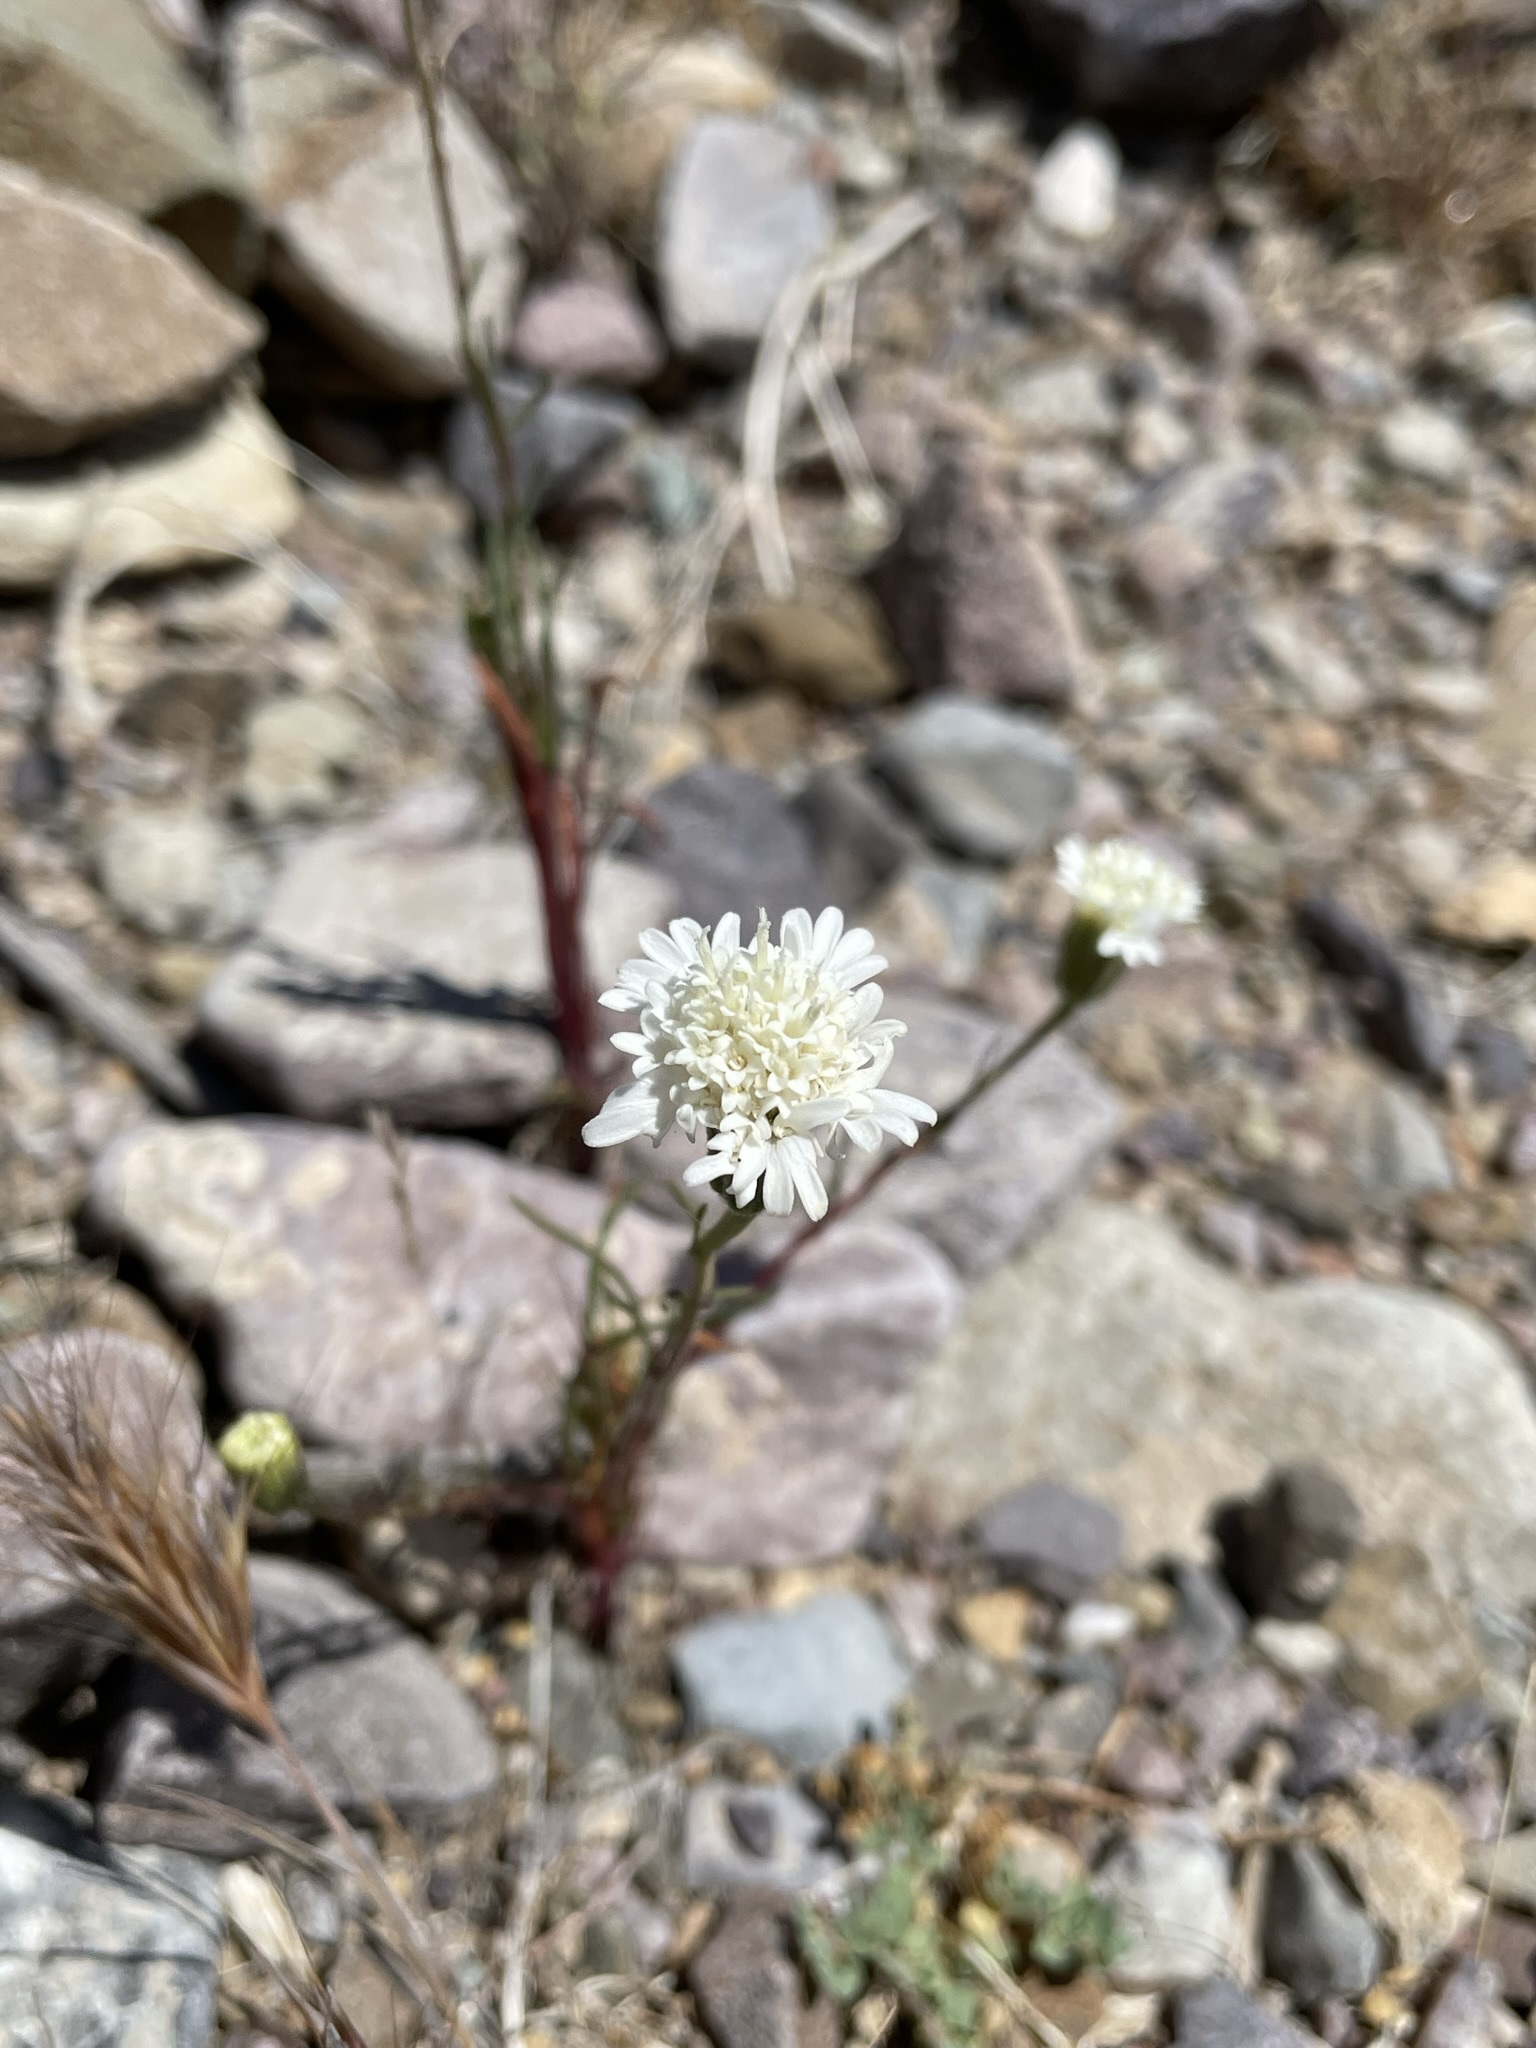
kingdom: Plantae
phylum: Tracheophyta
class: Magnoliopsida
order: Asterales
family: Asteraceae
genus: Chaenactis
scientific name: Chaenactis fremontii
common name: Fremont pincushion
